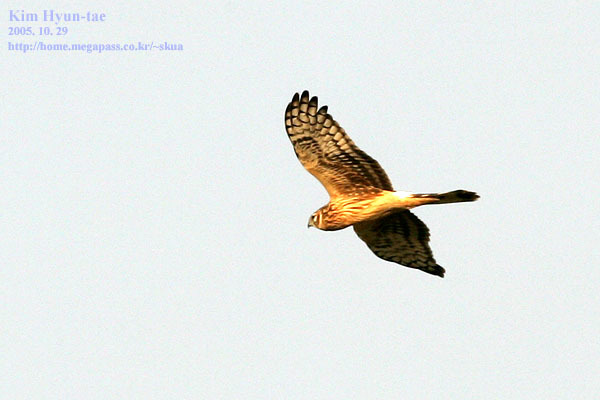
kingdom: Animalia
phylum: Chordata
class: Aves
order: Accipitriformes
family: Accipitridae
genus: Circus
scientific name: Circus cyaneus
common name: Hen harrier
